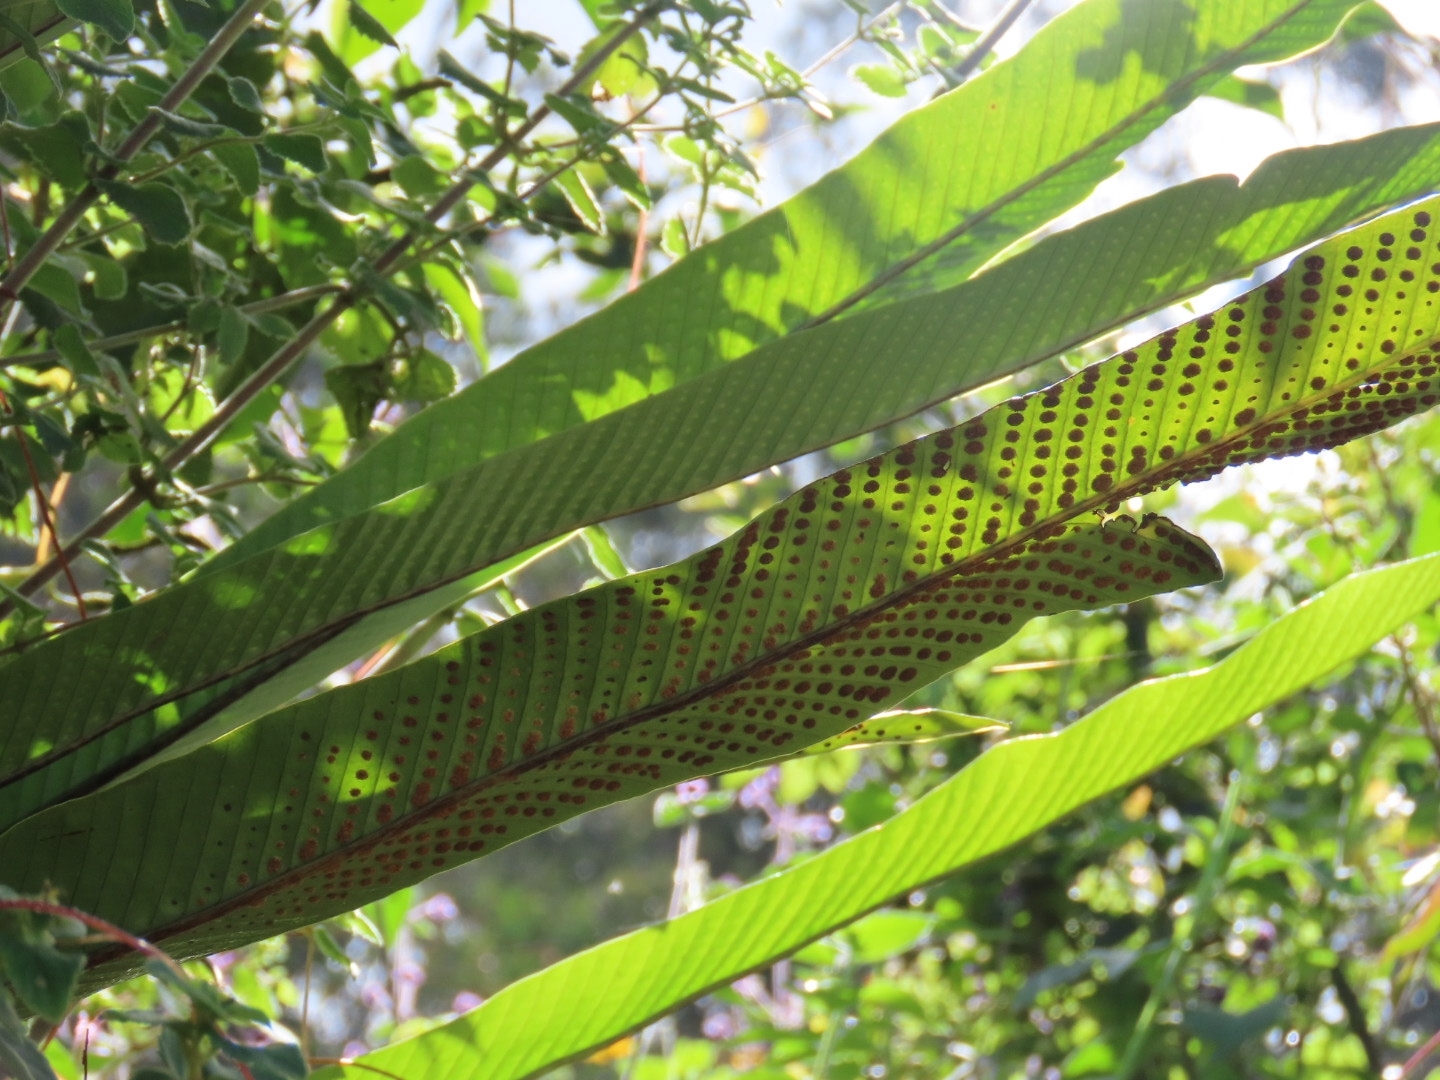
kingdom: Plantae
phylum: Tracheophyta
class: Polypodiopsida
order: Polypodiales
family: Polypodiaceae
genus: Niphidium
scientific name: Niphidium crassifolium
